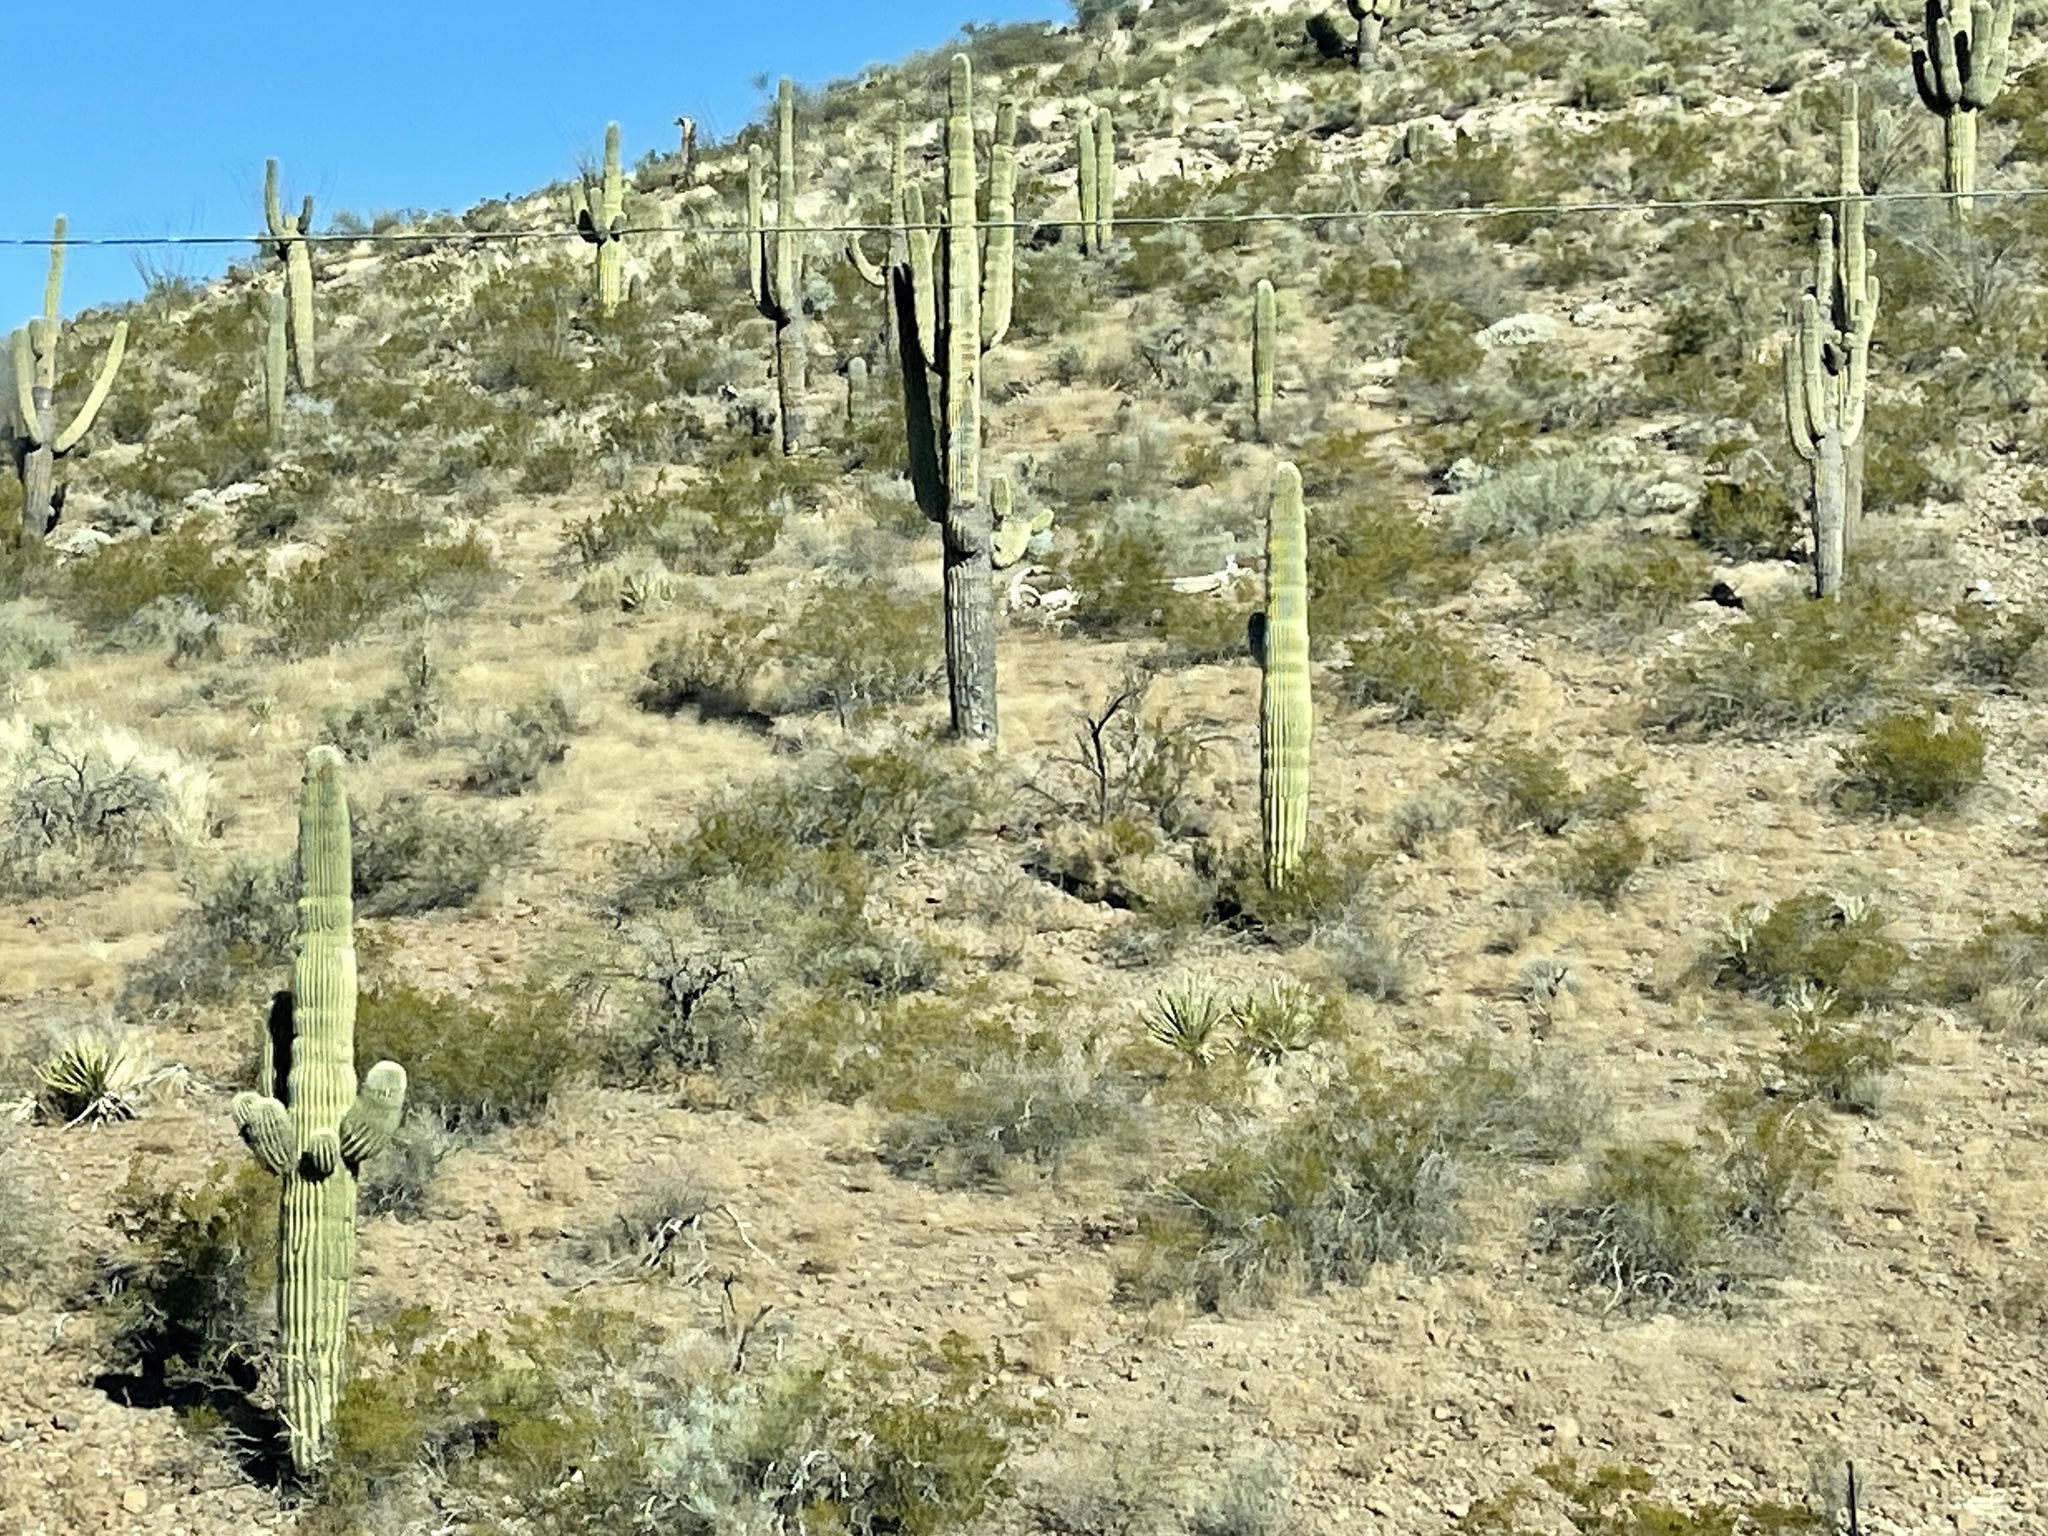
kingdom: Plantae
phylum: Tracheophyta
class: Magnoliopsida
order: Caryophyllales
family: Cactaceae
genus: Carnegiea
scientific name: Carnegiea gigantea
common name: Saguaro
